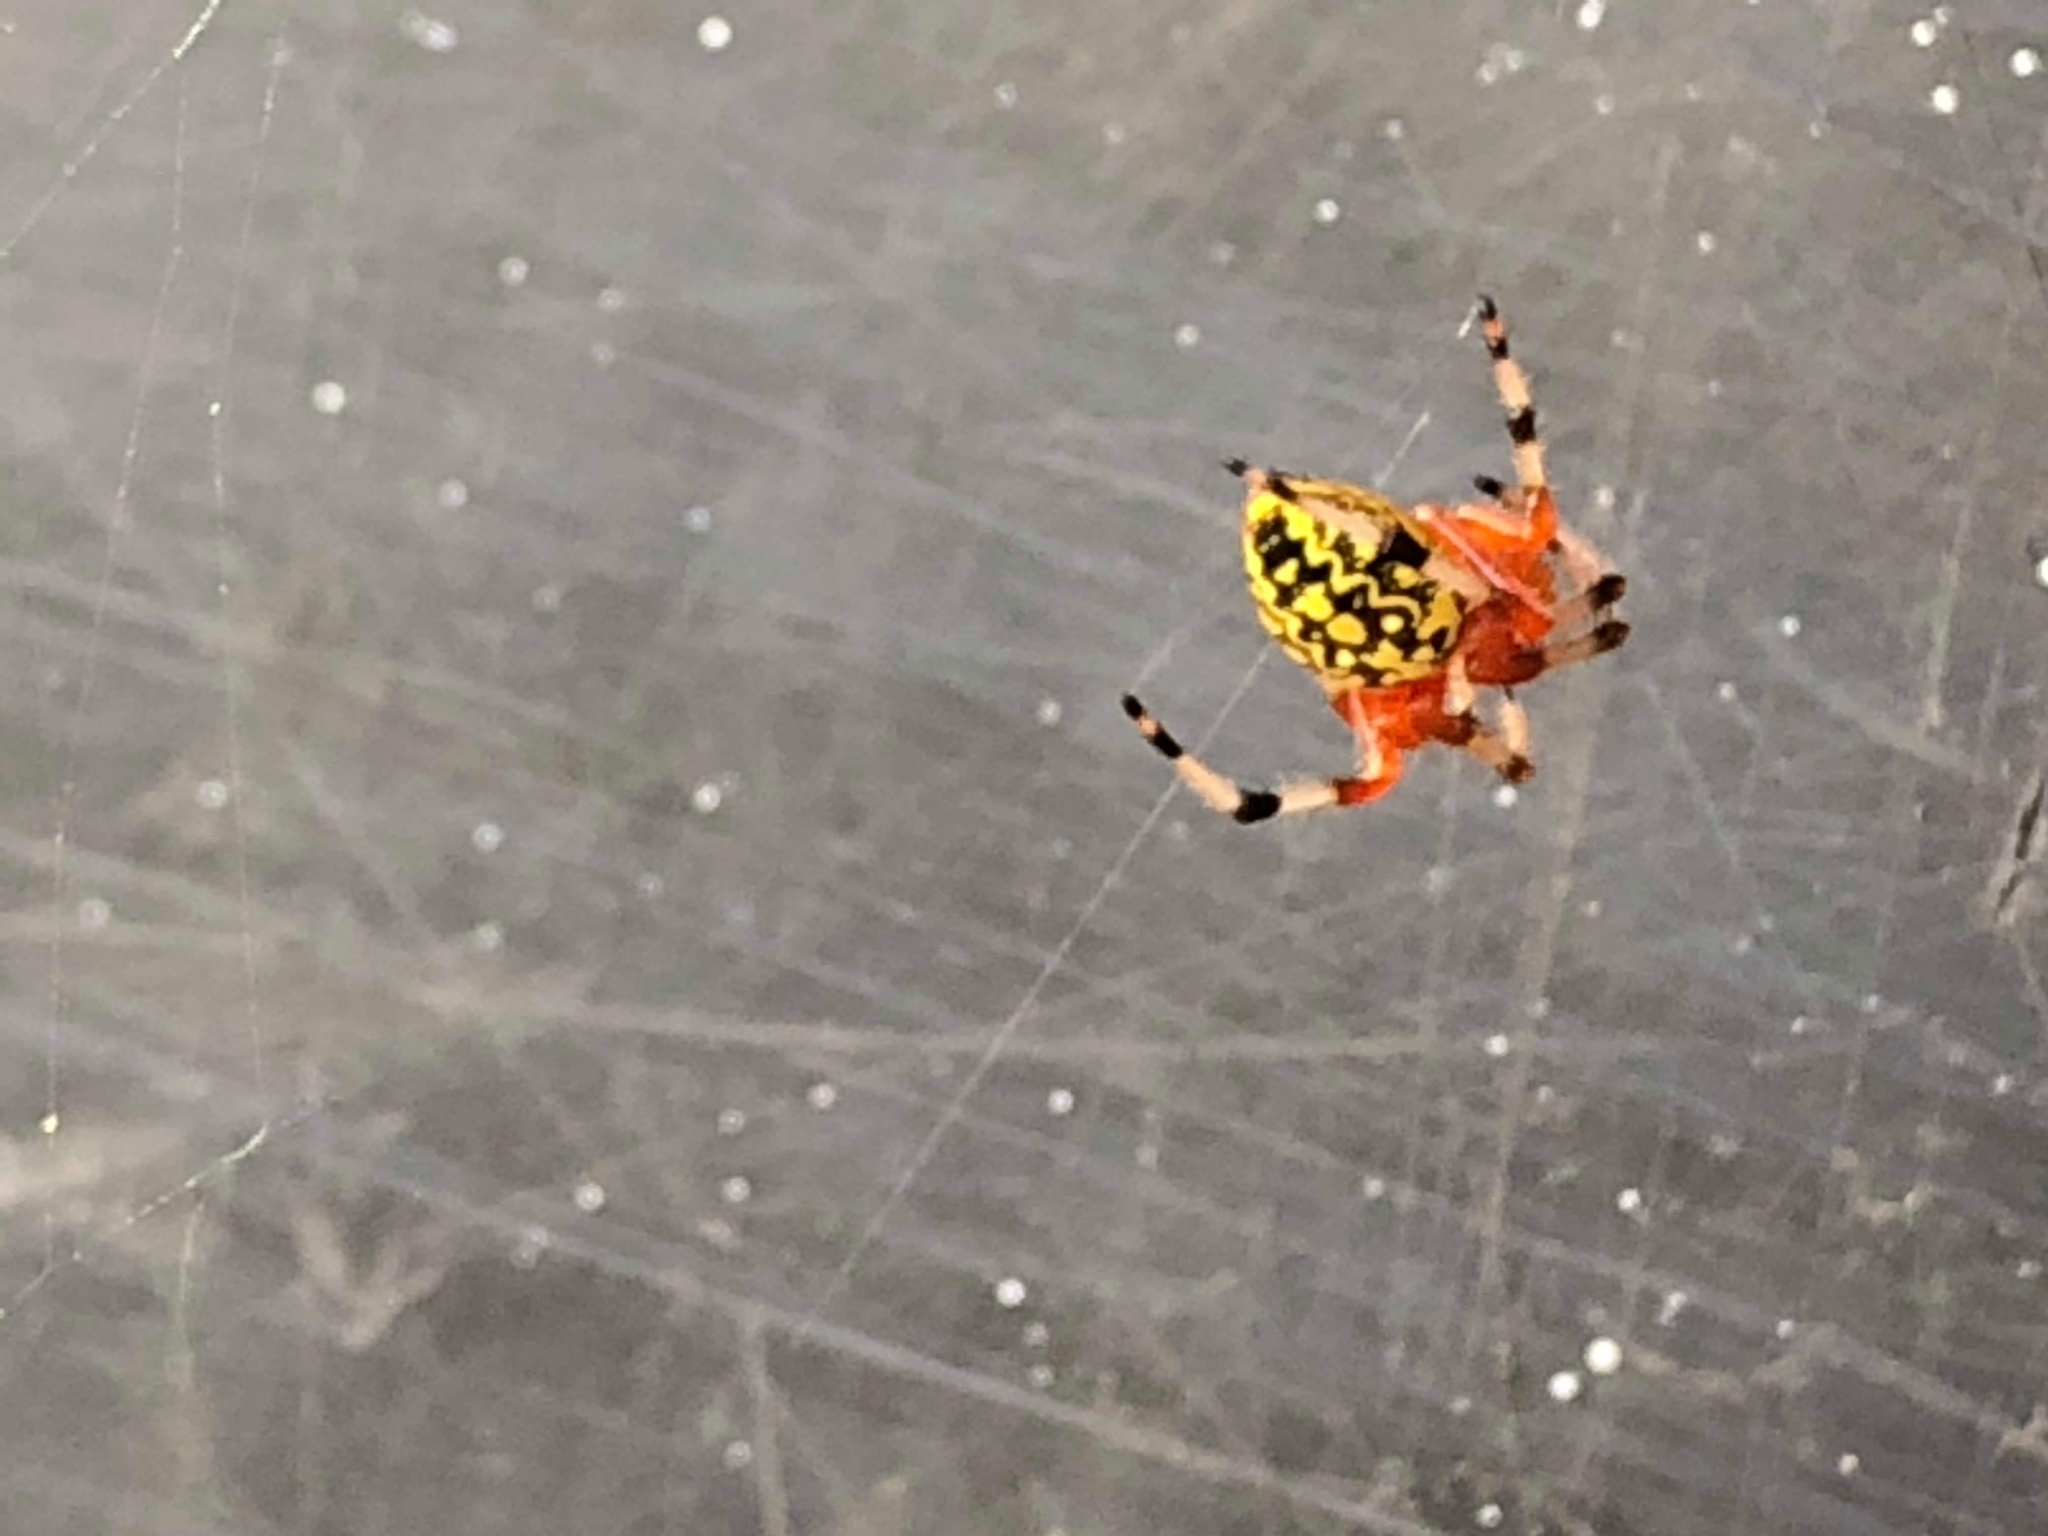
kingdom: Animalia
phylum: Arthropoda
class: Arachnida
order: Araneae
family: Araneidae
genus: Araneus
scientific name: Araneus marmoreus
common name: Marbled orbweaver
